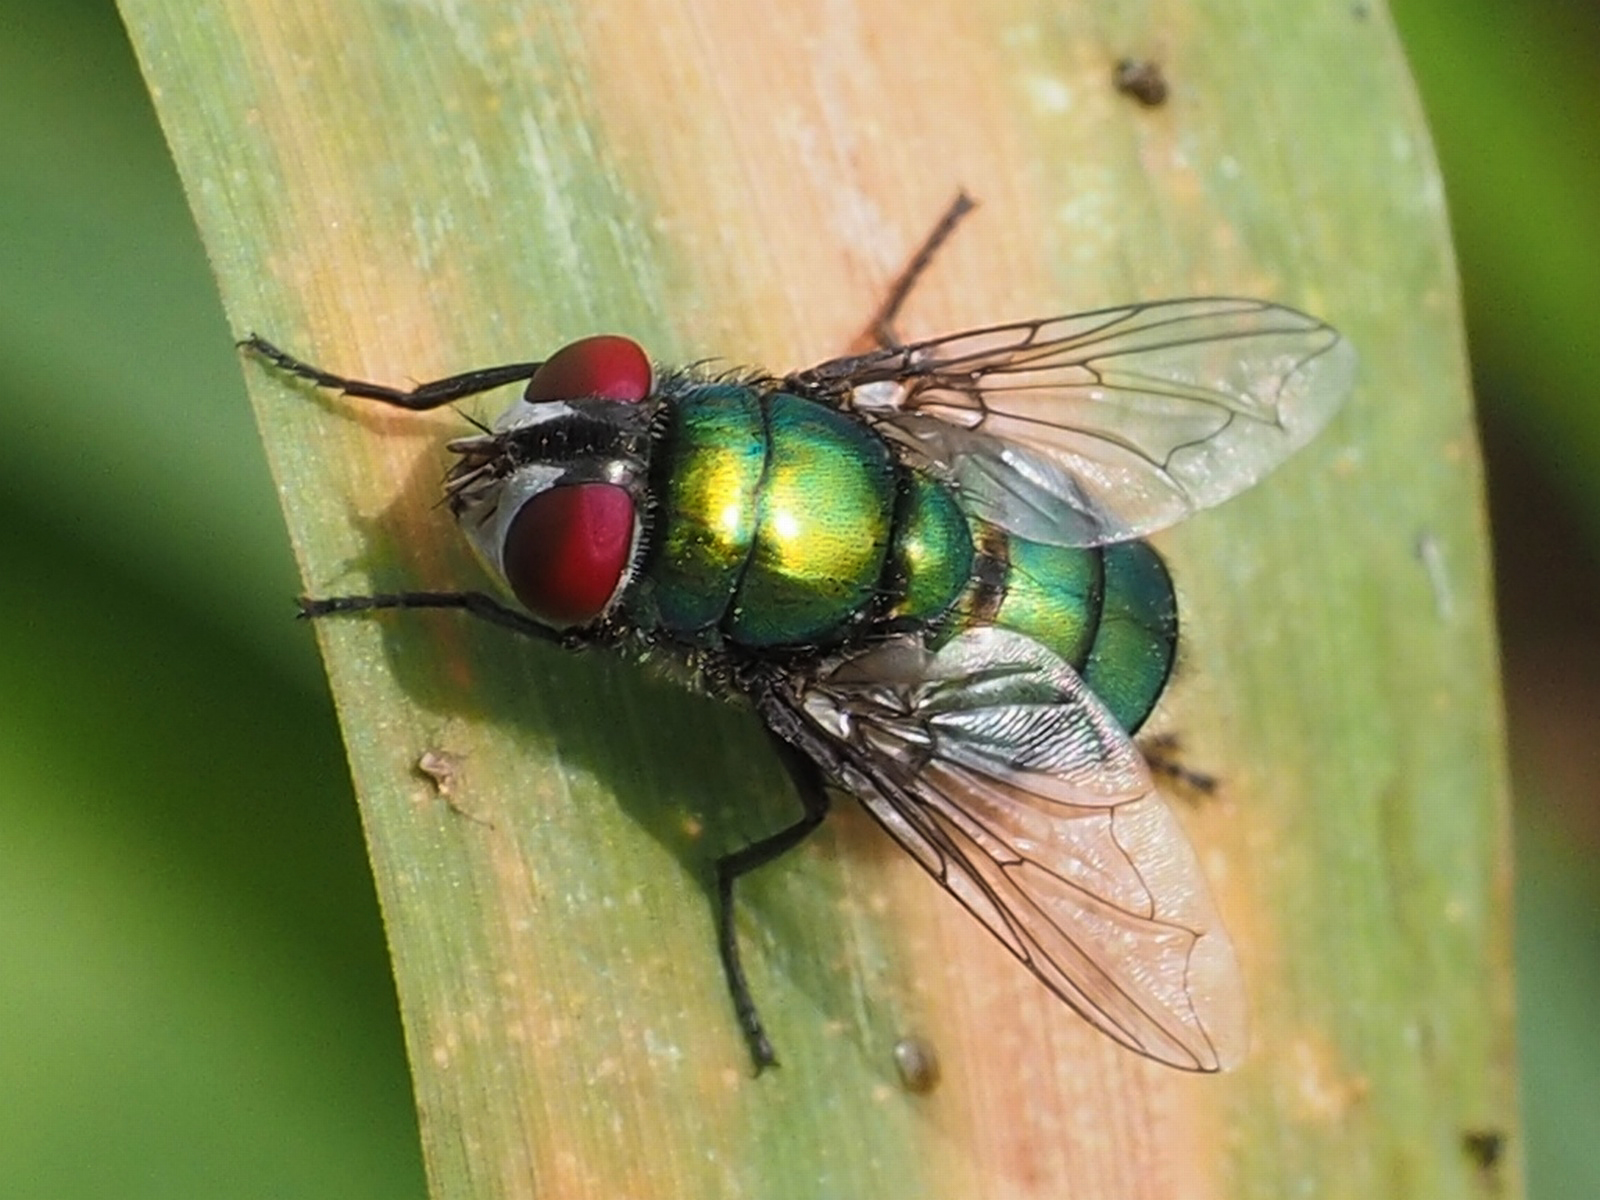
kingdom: Animalia
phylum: Arthropoda
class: Insecta
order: Diptera
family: Calliphoridae
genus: Chrysomya
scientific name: Chrysomya albiceps
